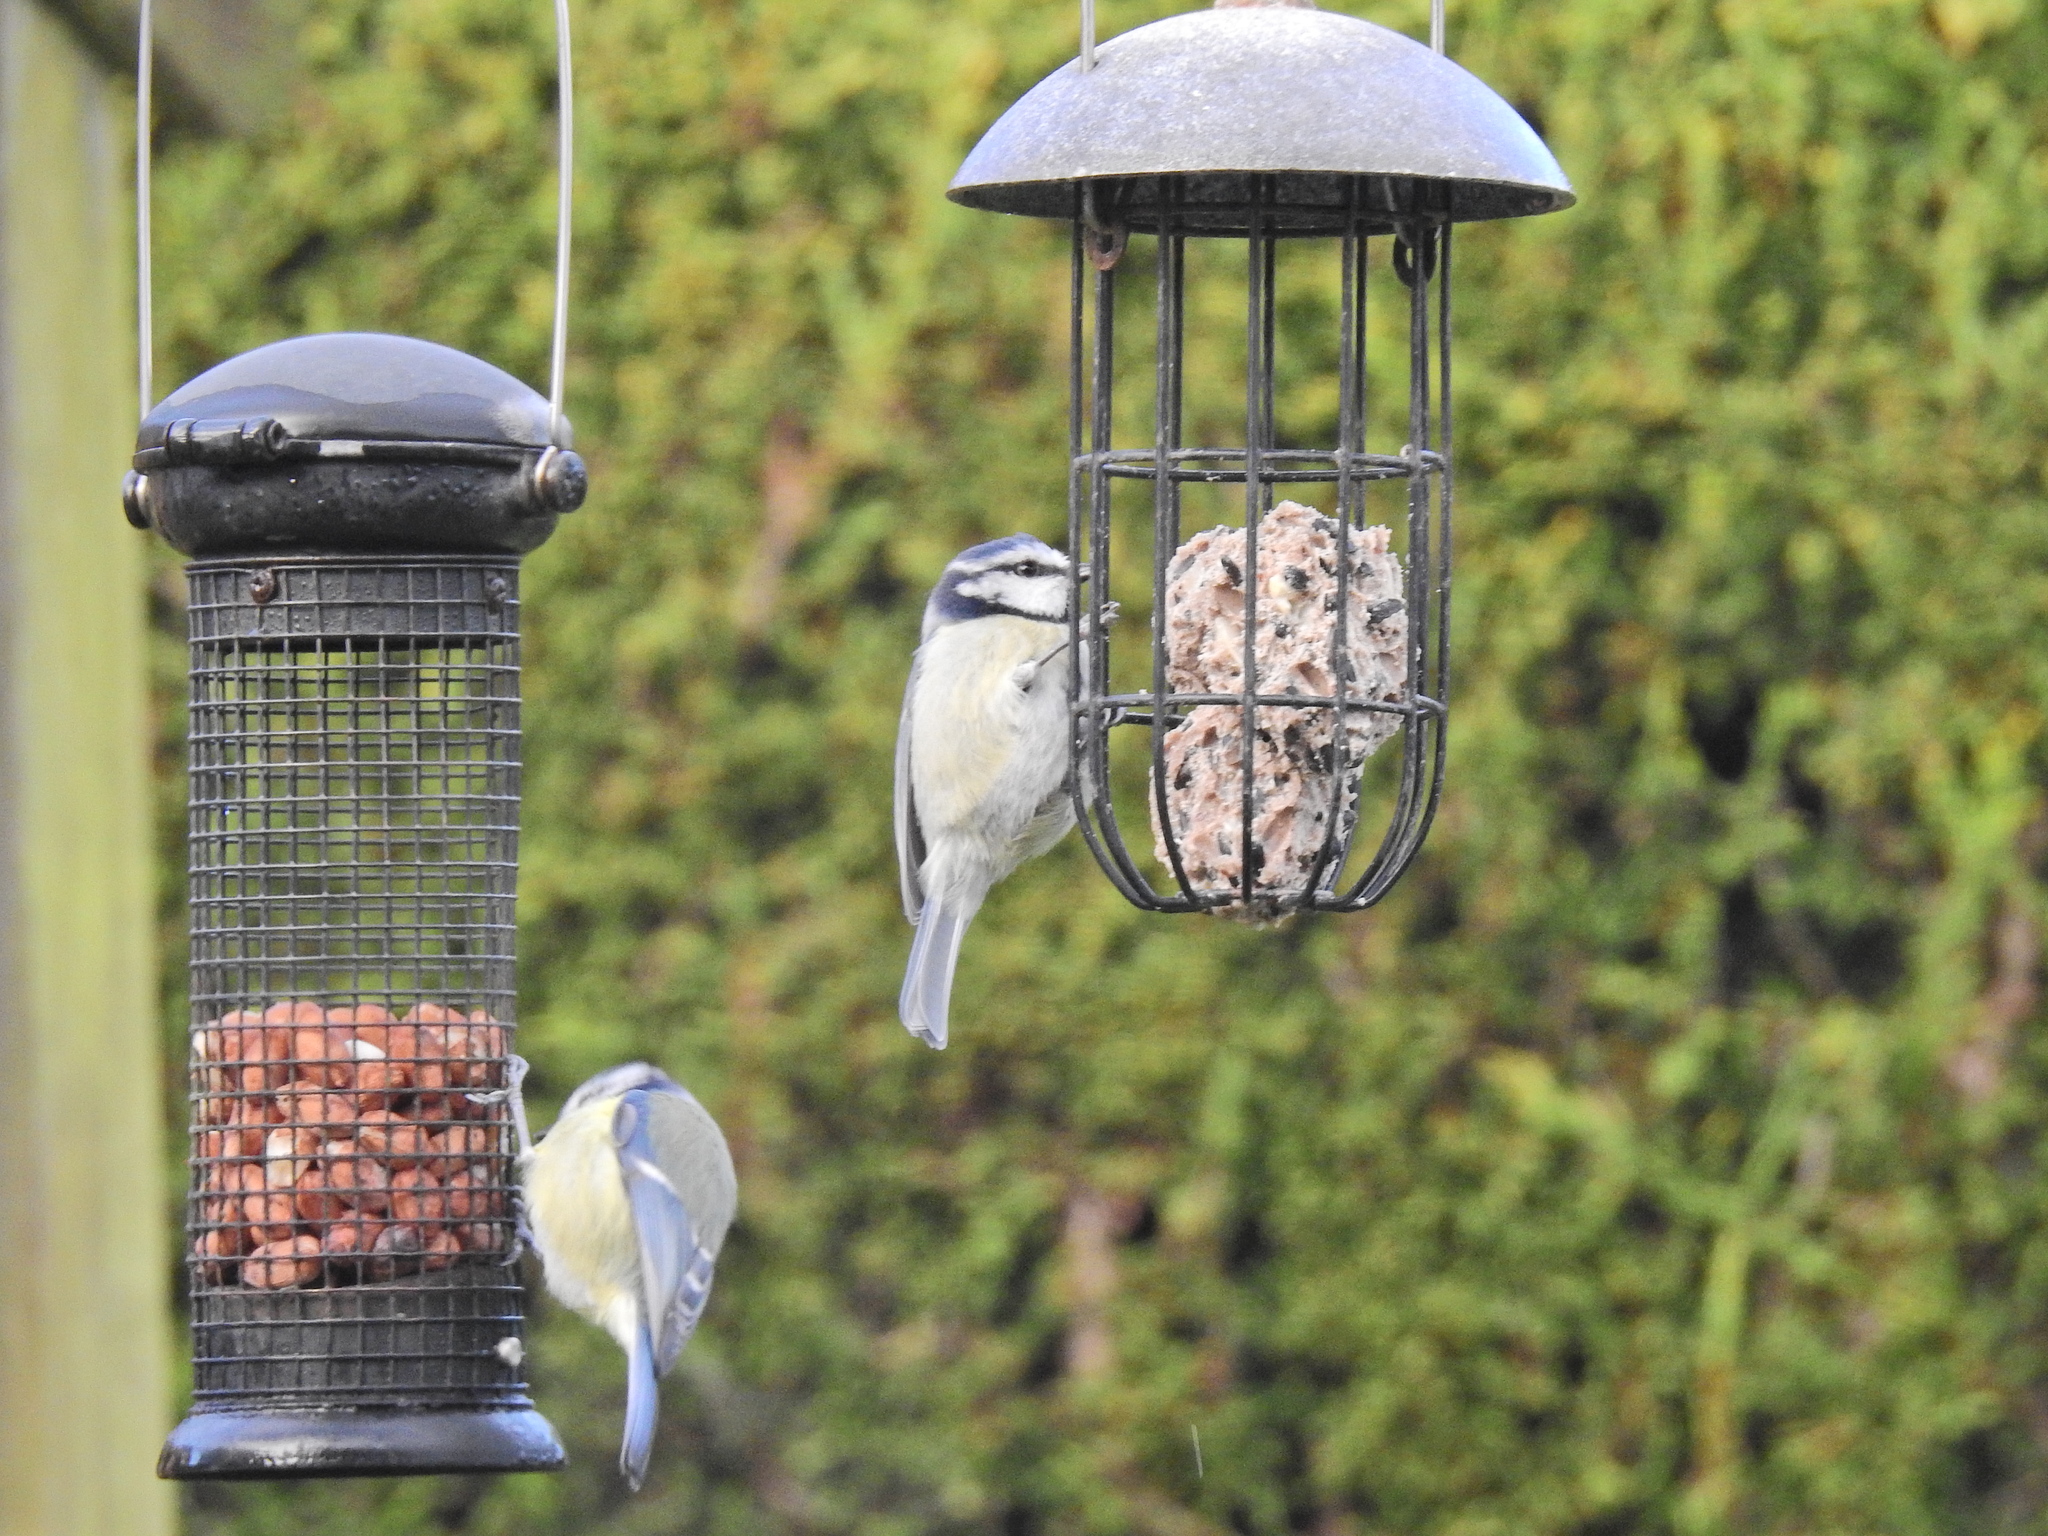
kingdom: Animalia
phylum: Chordata
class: Aves
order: Passeriformes
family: Paridae
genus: Cyanistes
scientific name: Cyanistes caeruleus
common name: Eurasian blue tit
